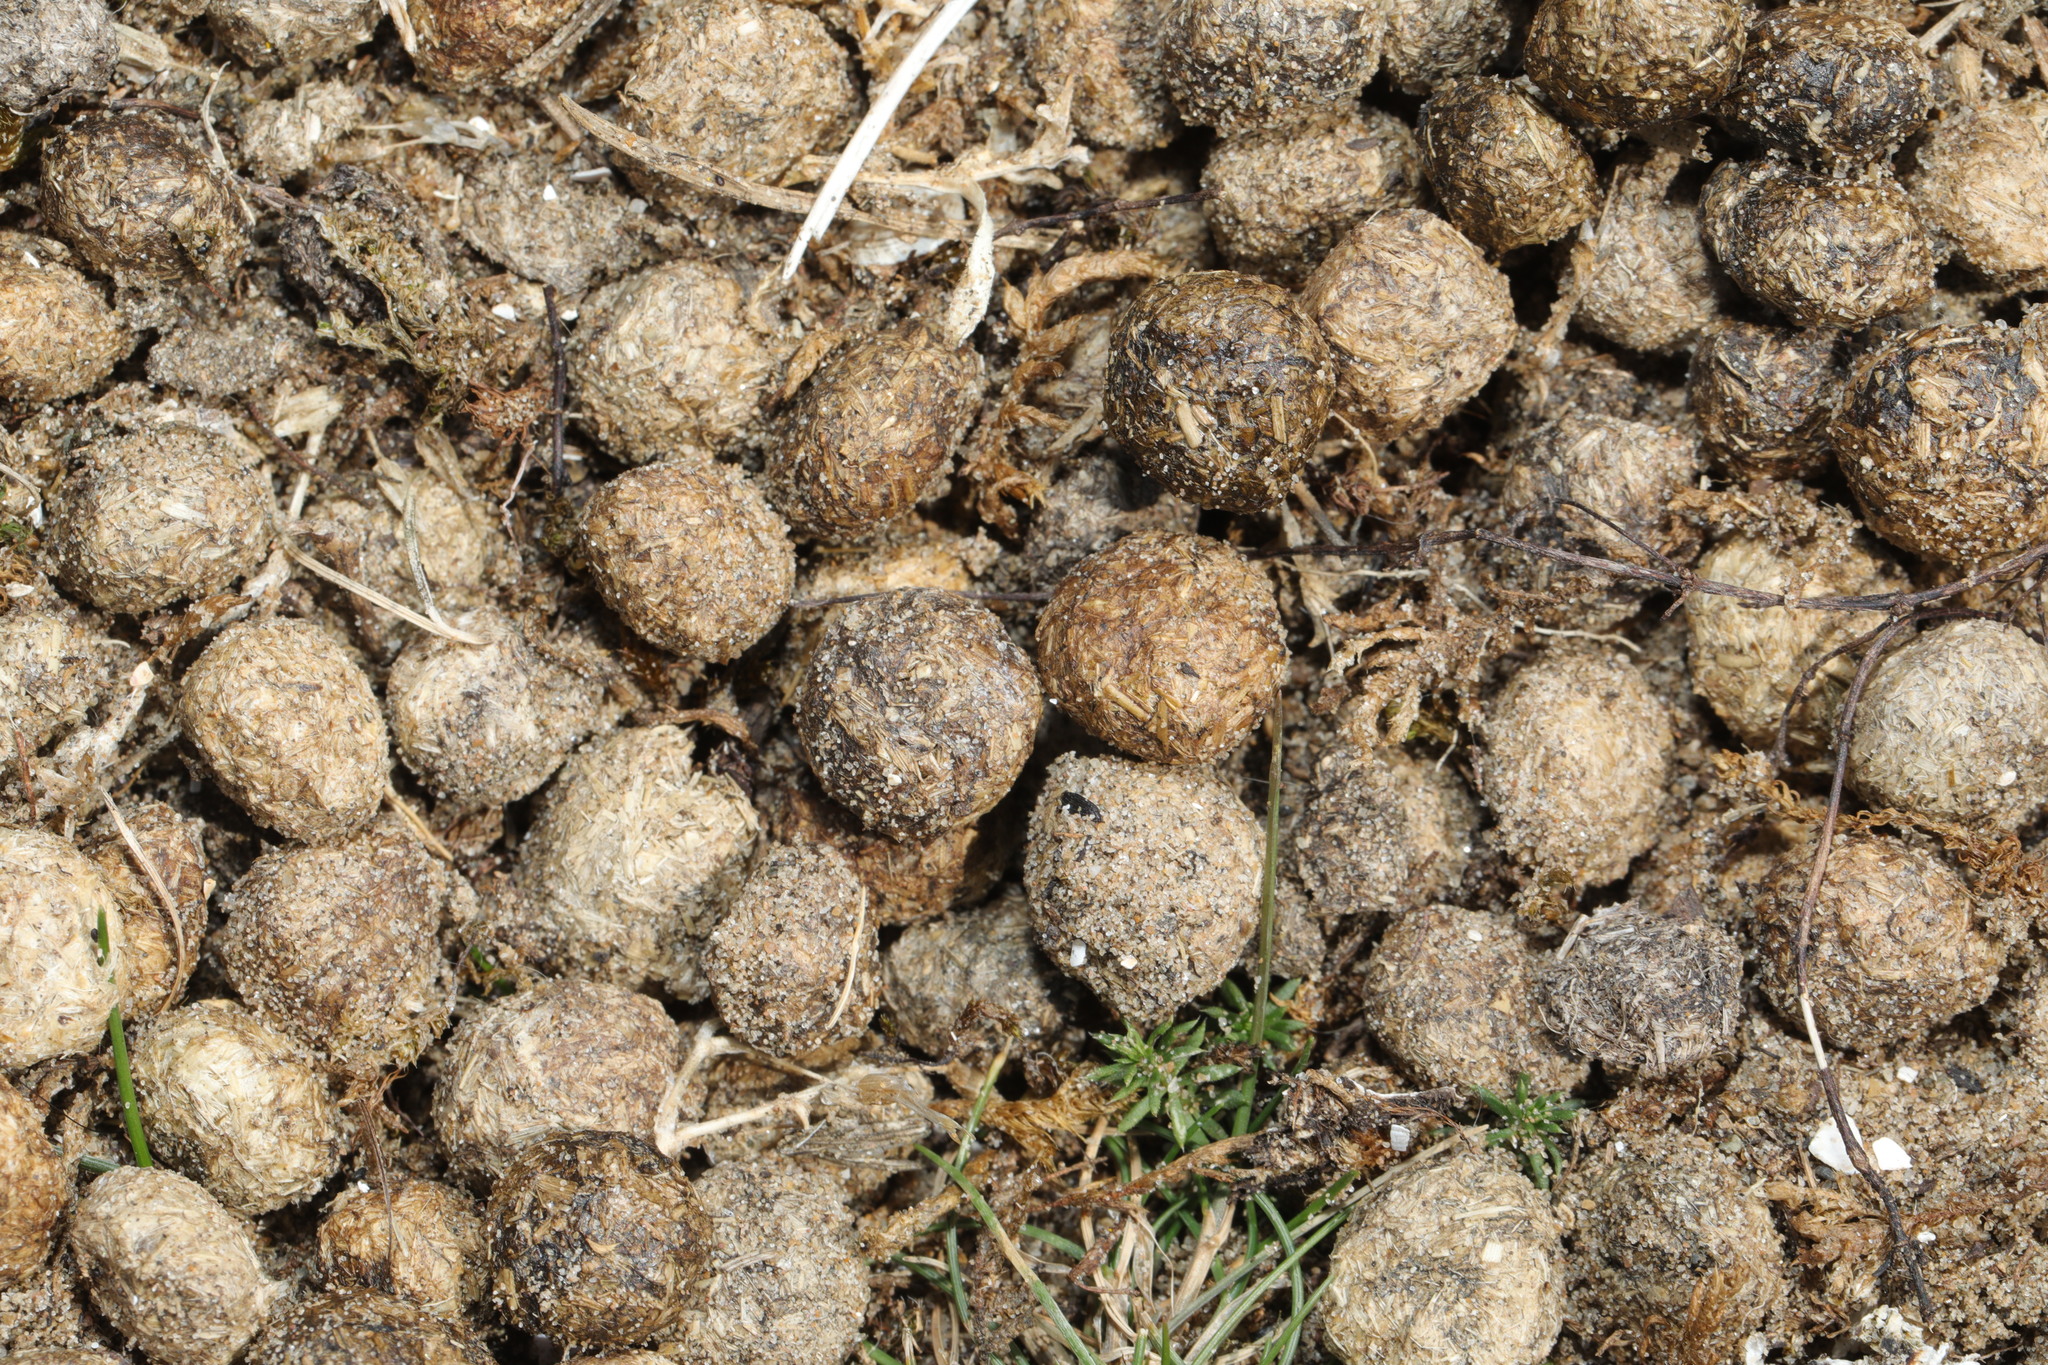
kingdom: Animalia
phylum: Chordata
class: Mammalia
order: Lagomorpha
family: Leporidae
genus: Oryctolagus
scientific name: Oryctolagus cuniculus
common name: European rabbit
